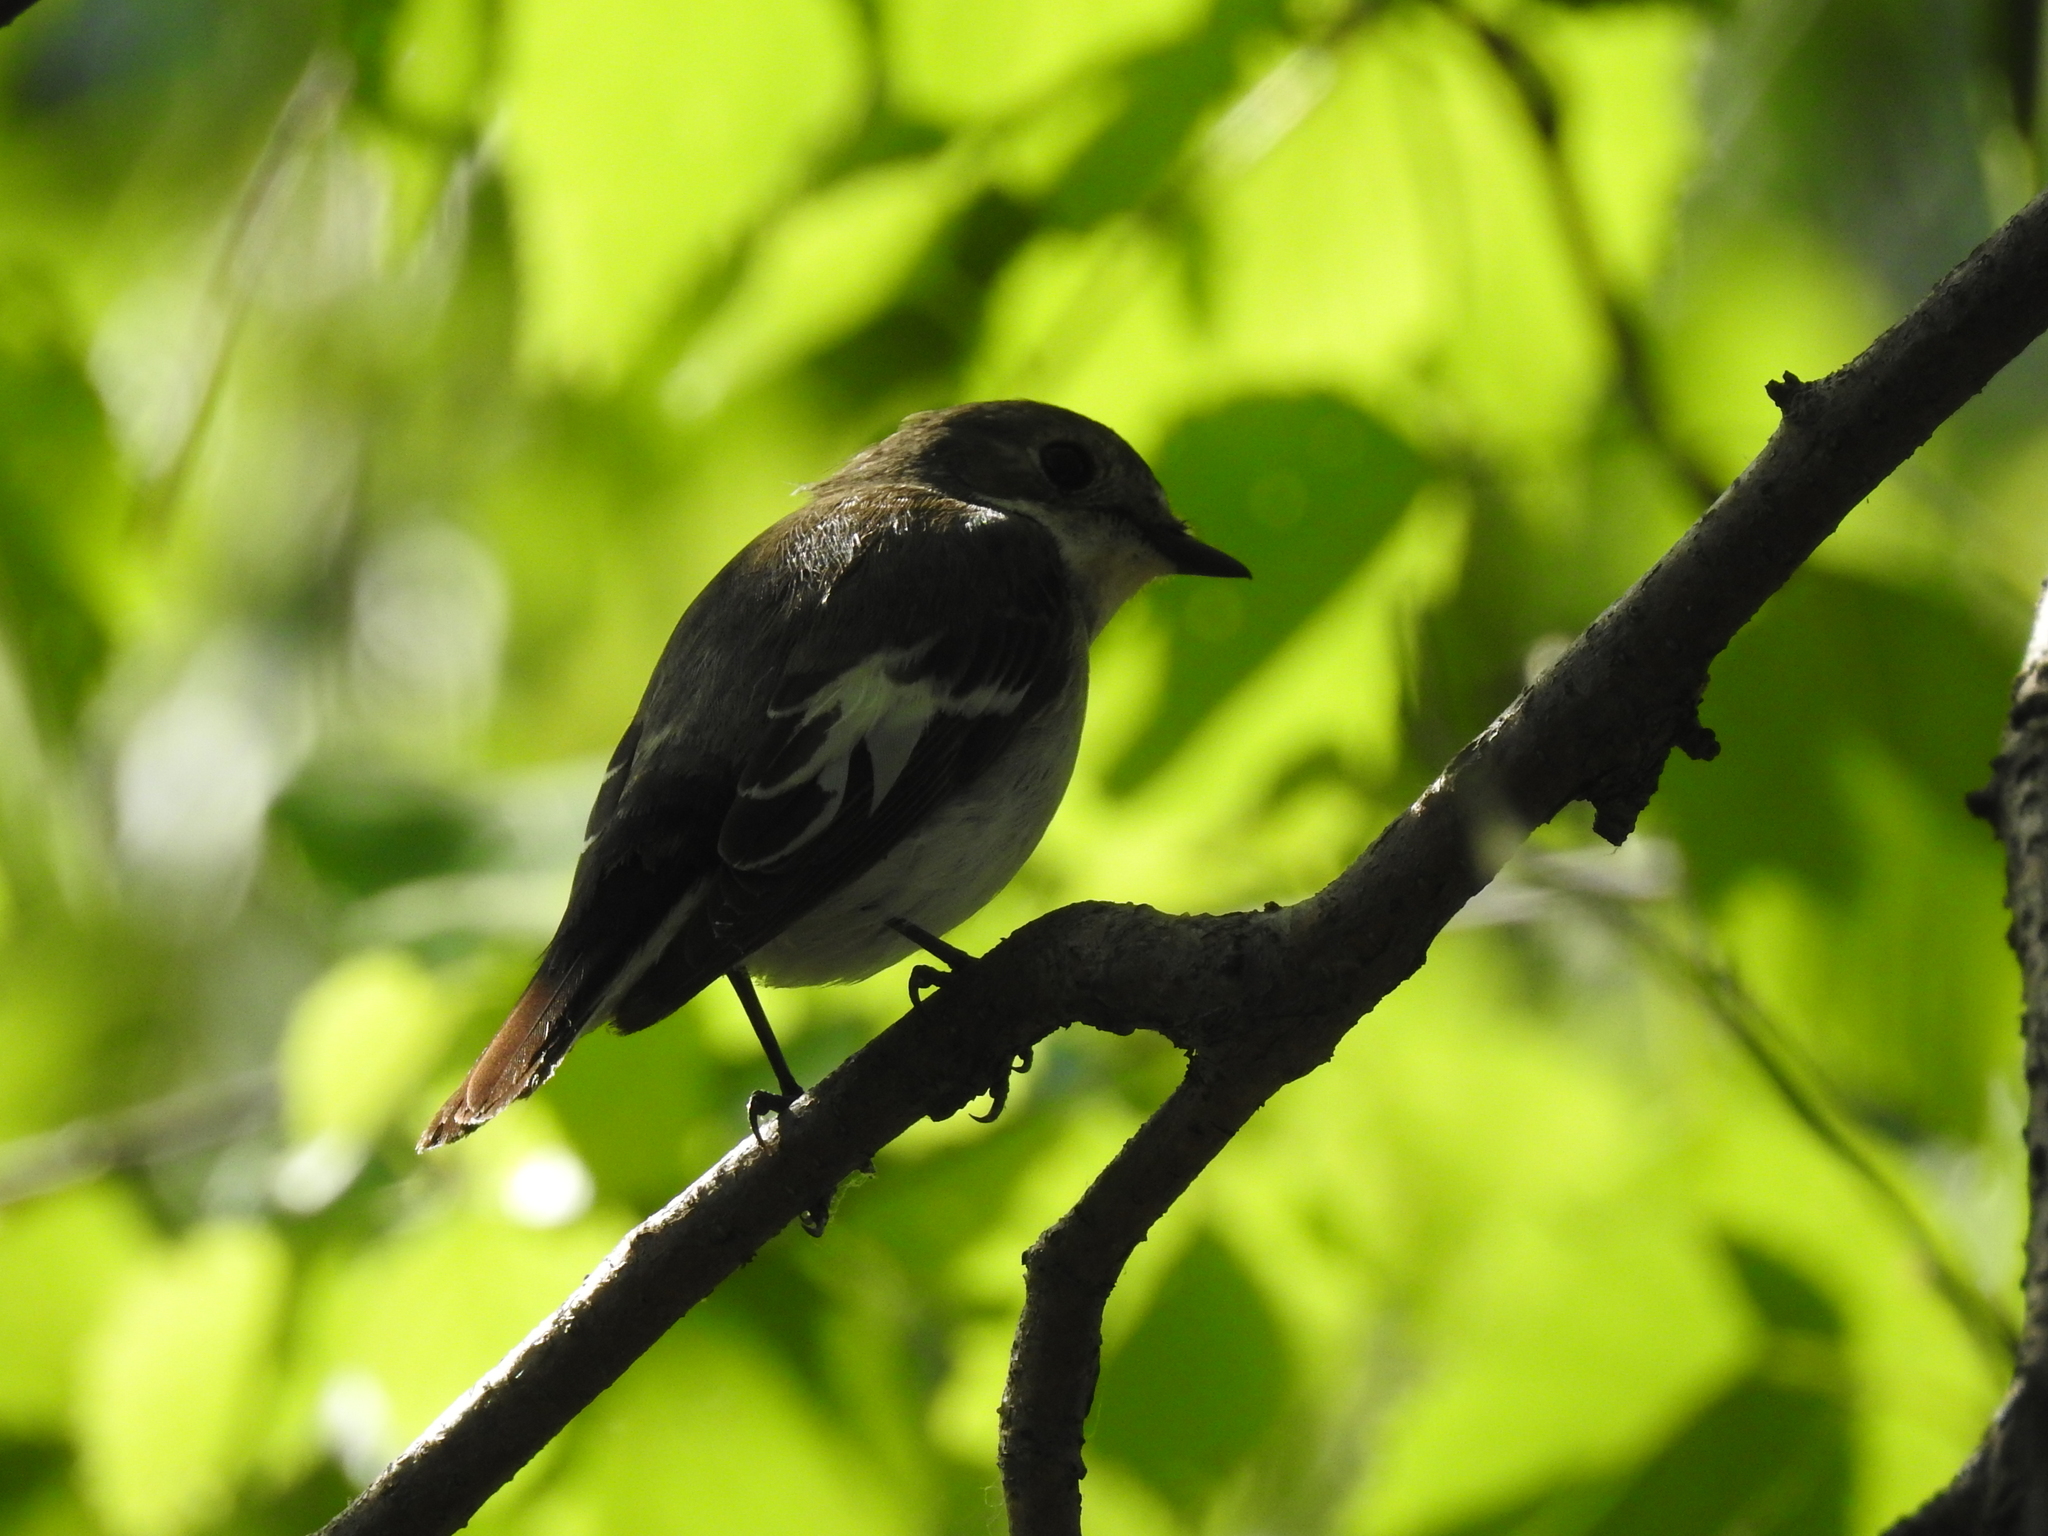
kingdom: Animalia
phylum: Chordata
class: Aves
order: Passeriformes
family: Muscicapidae
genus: Ficedula
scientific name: Ficedula hypoleuca
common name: European pied flycatcher
